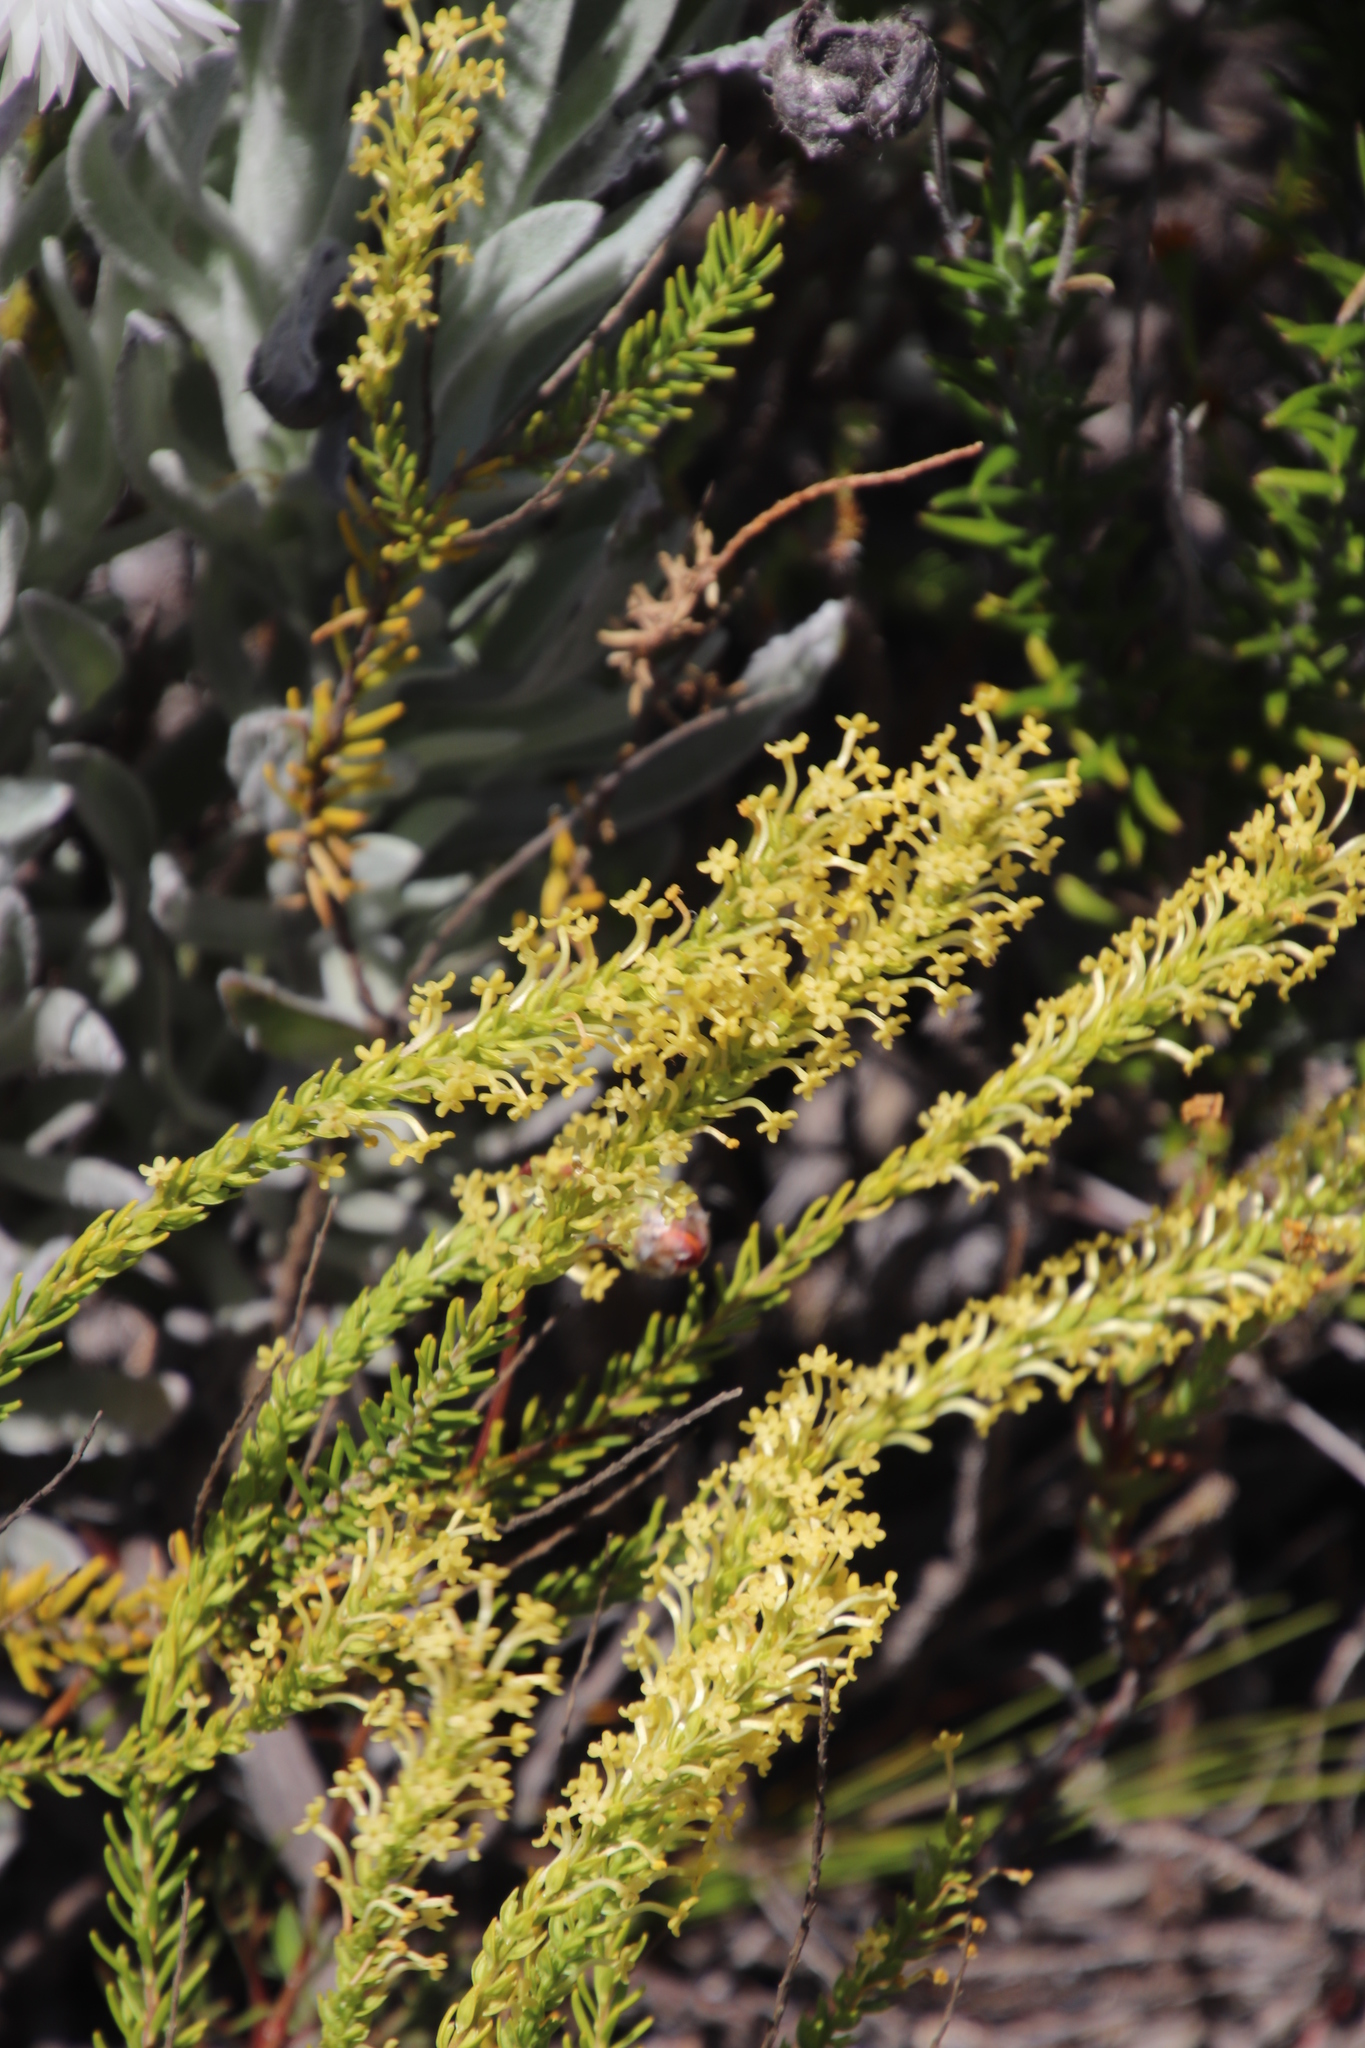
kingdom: Plantae
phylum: Tracheophyta
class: Magnoliopsida
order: Lamiales
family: Scrophulariaceae
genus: Microdon
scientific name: Microdon dubius
